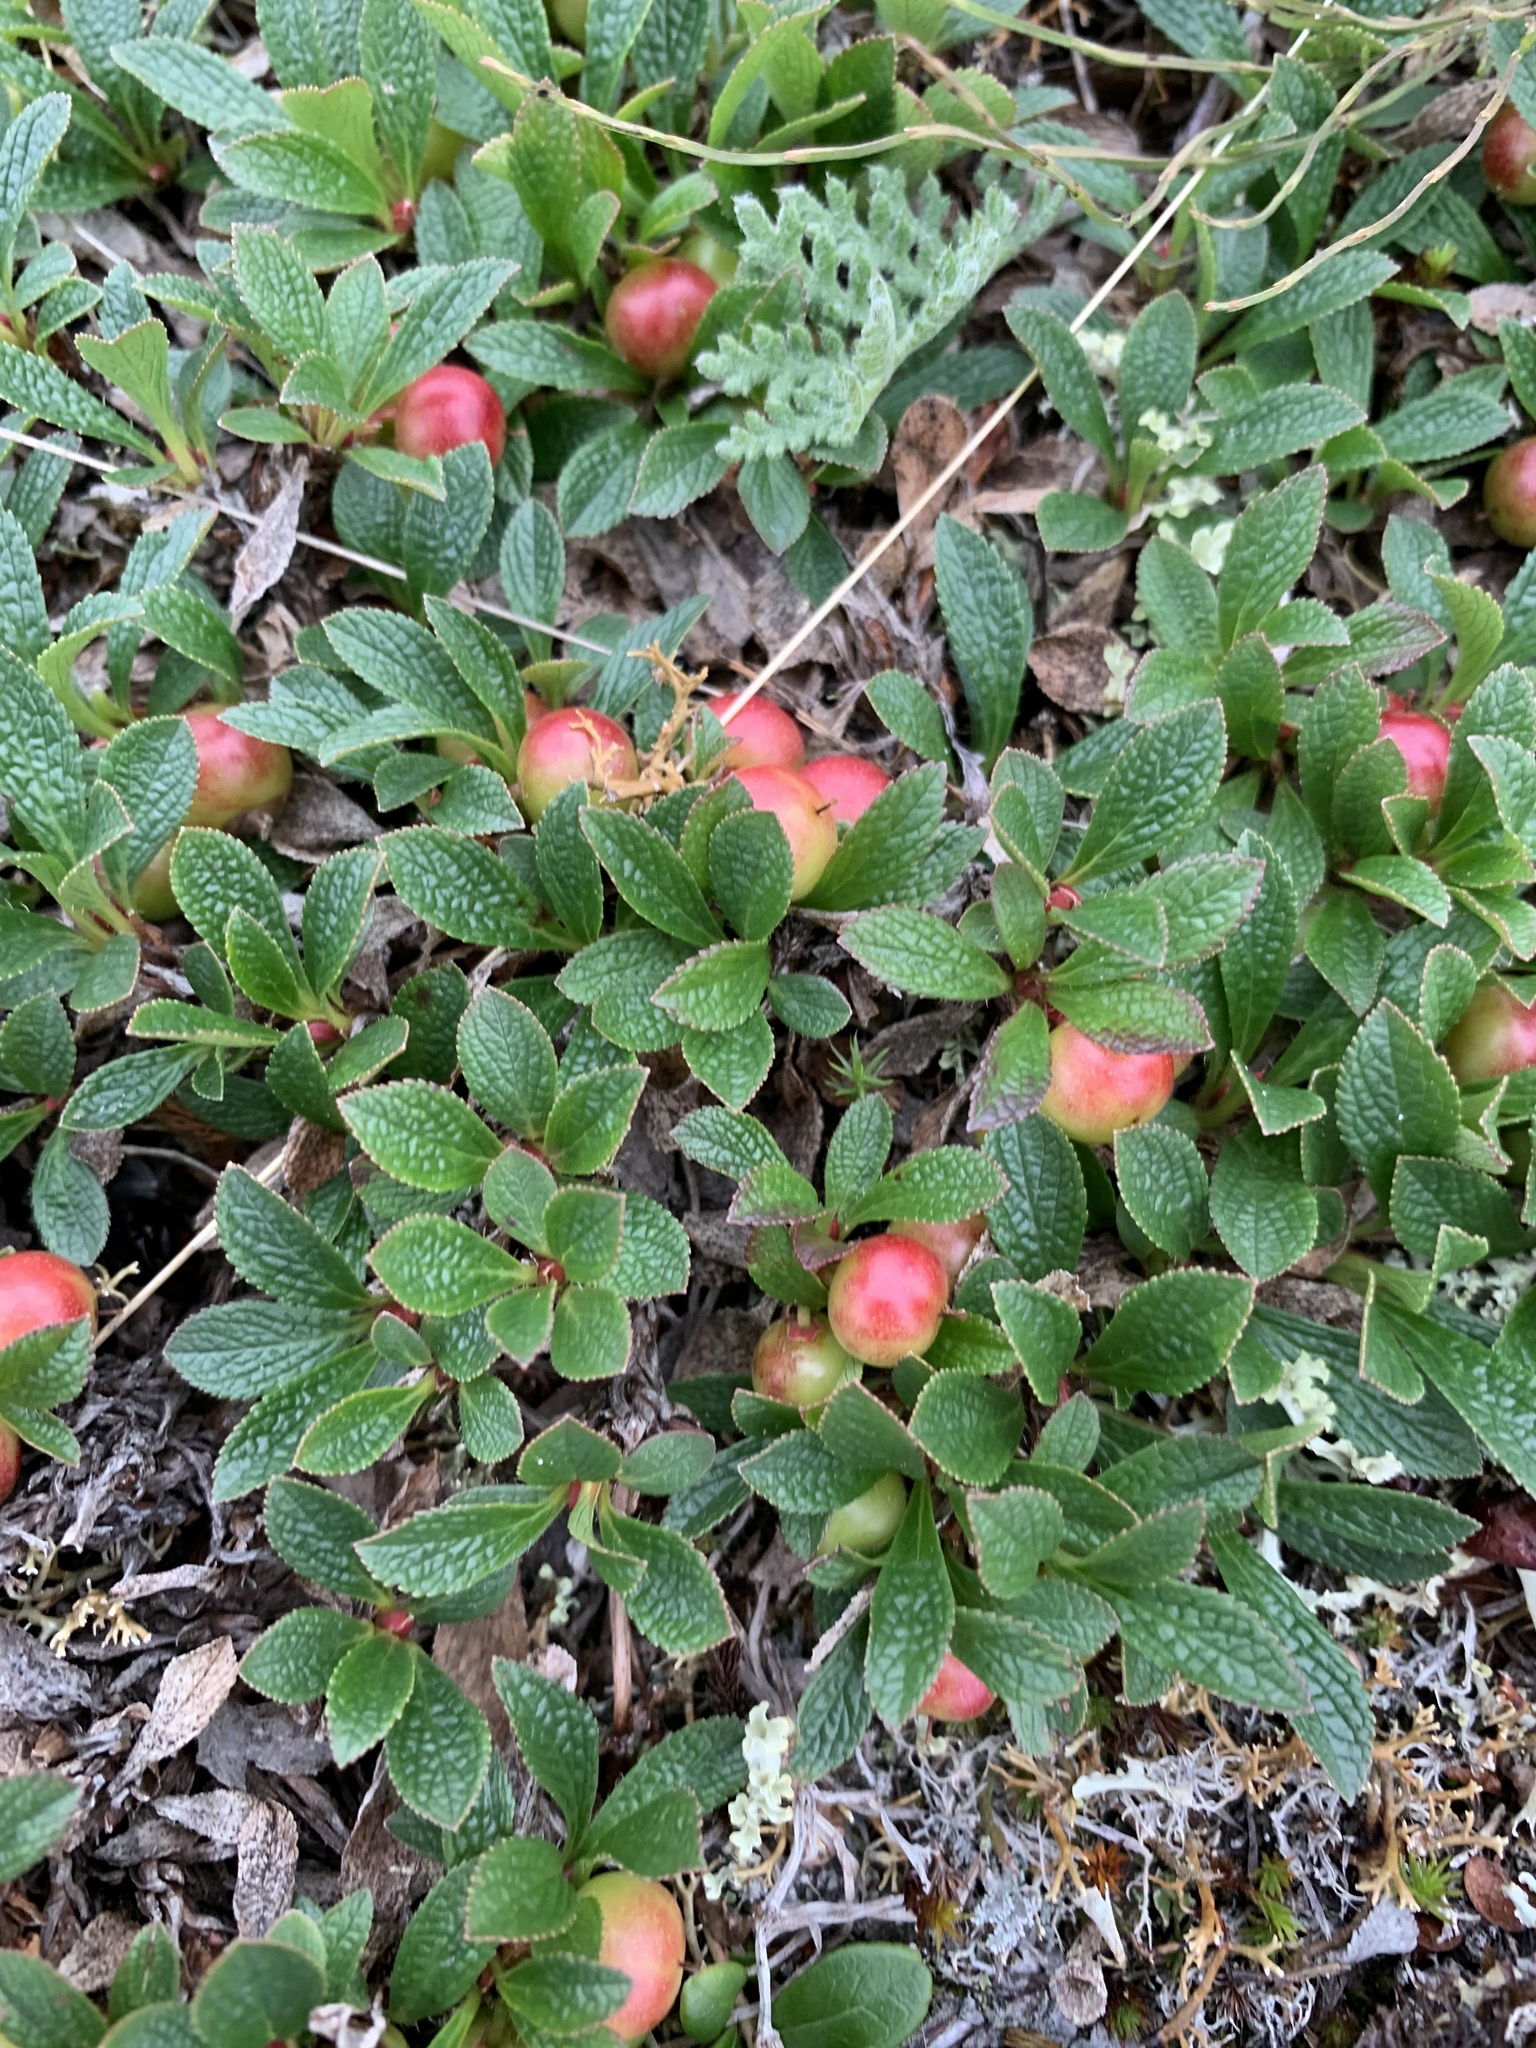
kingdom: Plantae
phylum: Tracheophyta
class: Magnoliopsida
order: Ericales
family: Ericaceae
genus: Arctostaphylos
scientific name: Arctostaphylos alpinus
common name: Alpine bearberry
